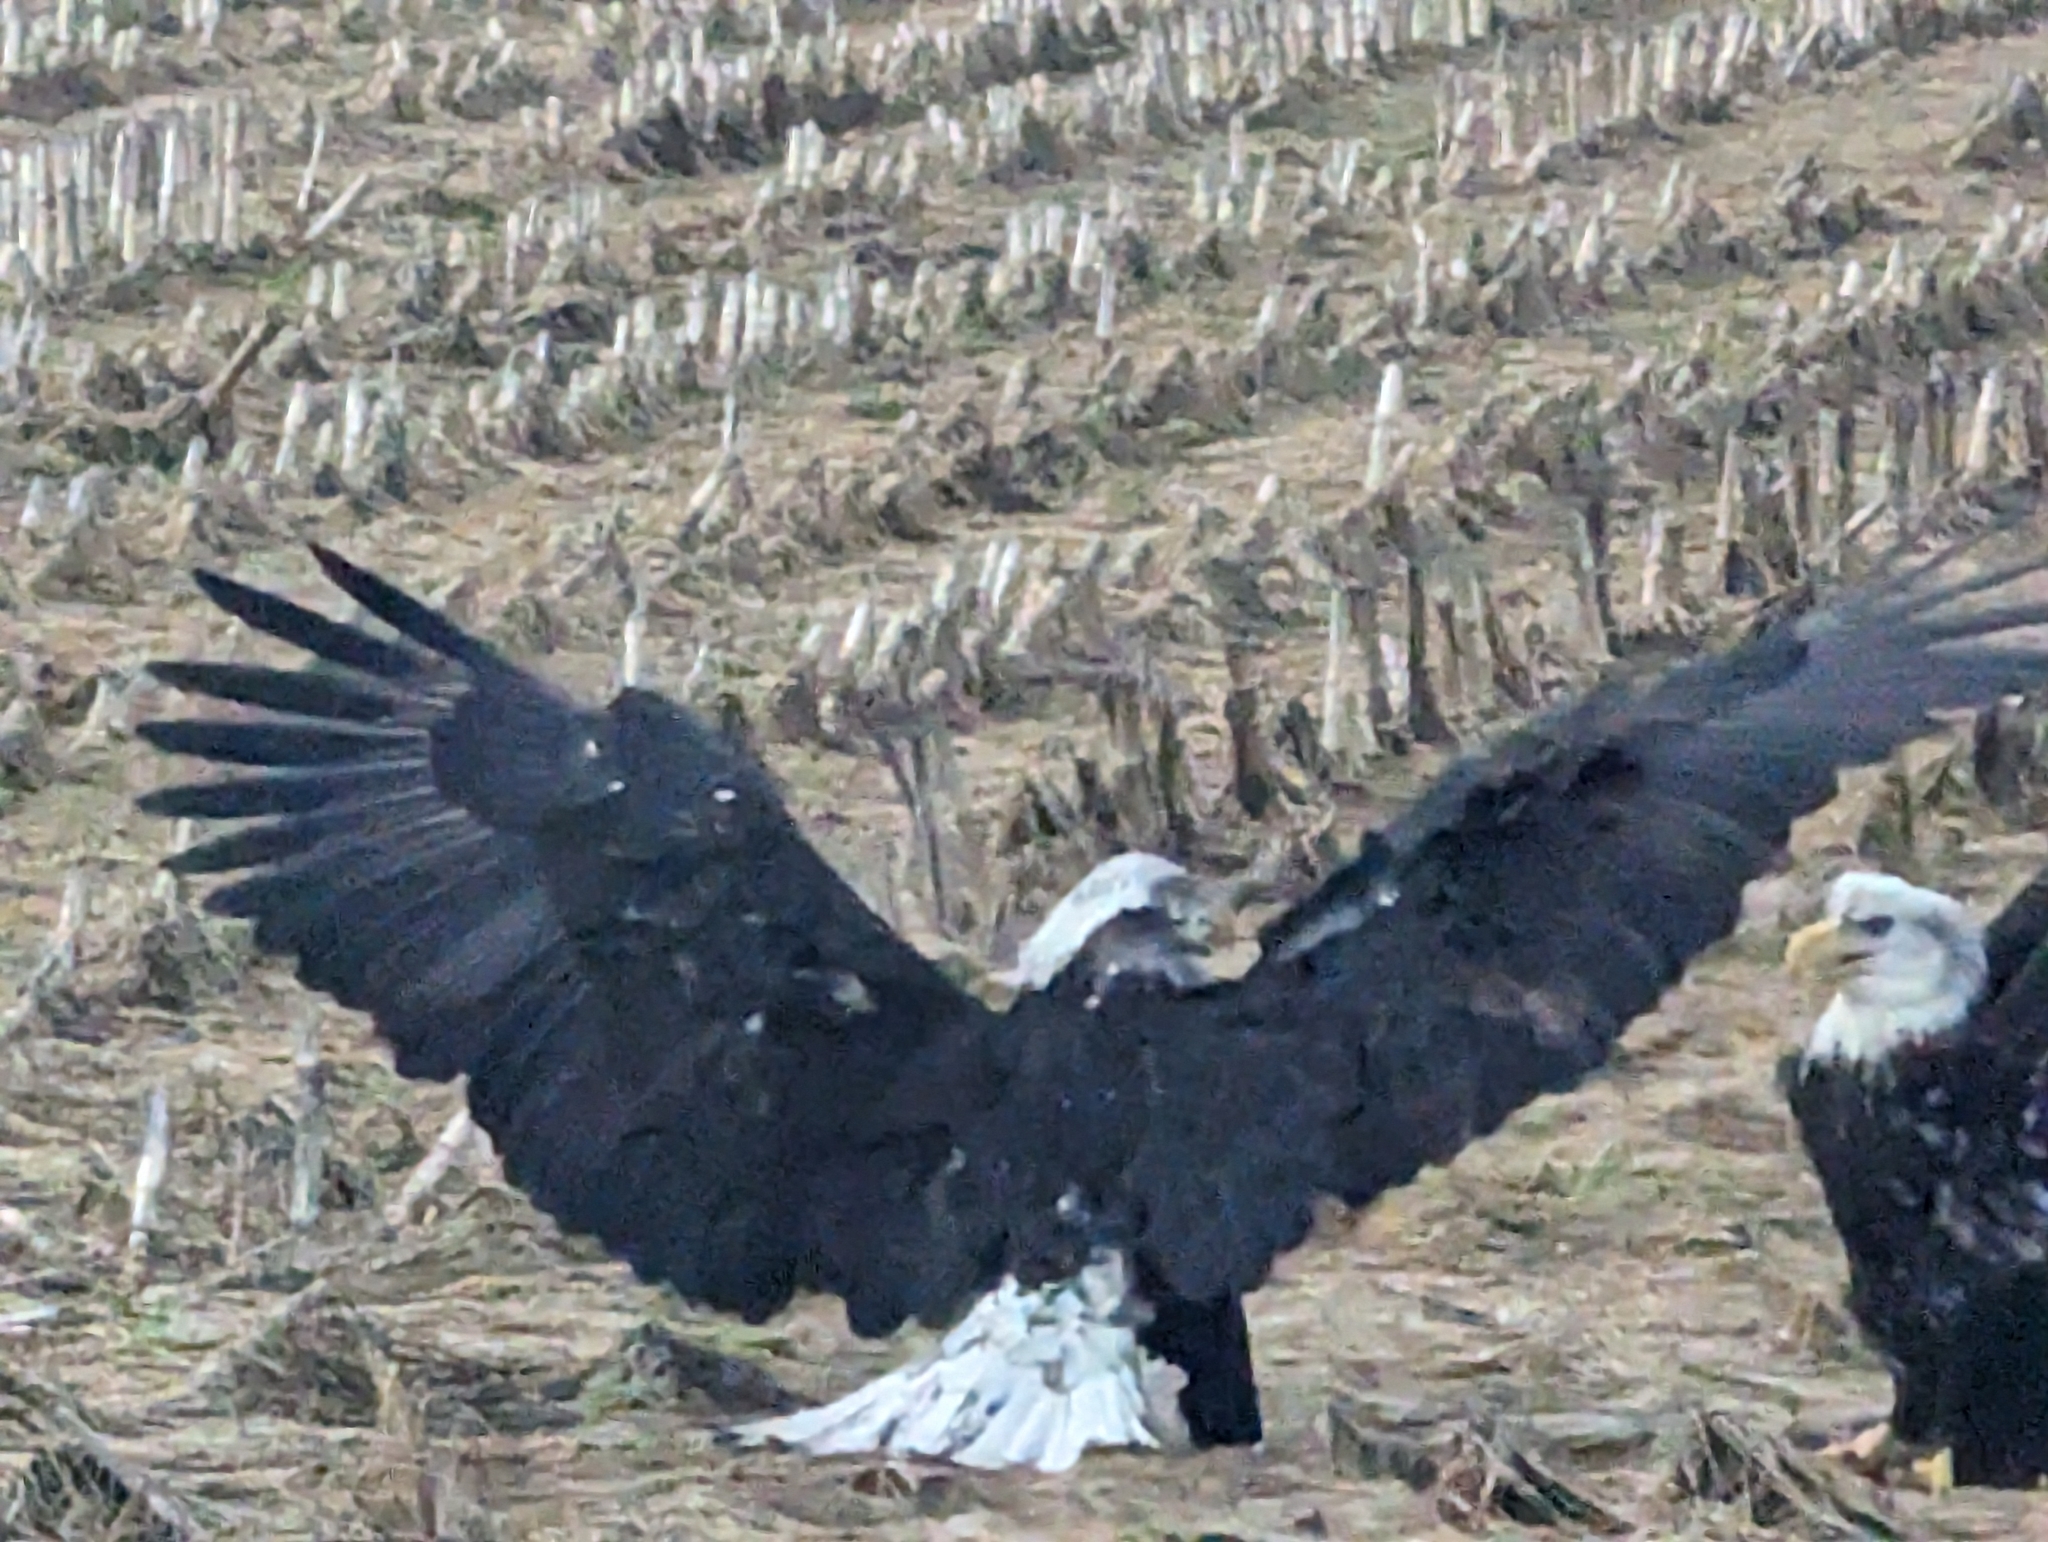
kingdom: Animalia
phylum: Chordata
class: Aves
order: Accipitriformes
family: Accipitridae
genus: Haliaeetus
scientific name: Haliaeetus leucocephalus
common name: Bald eagle
